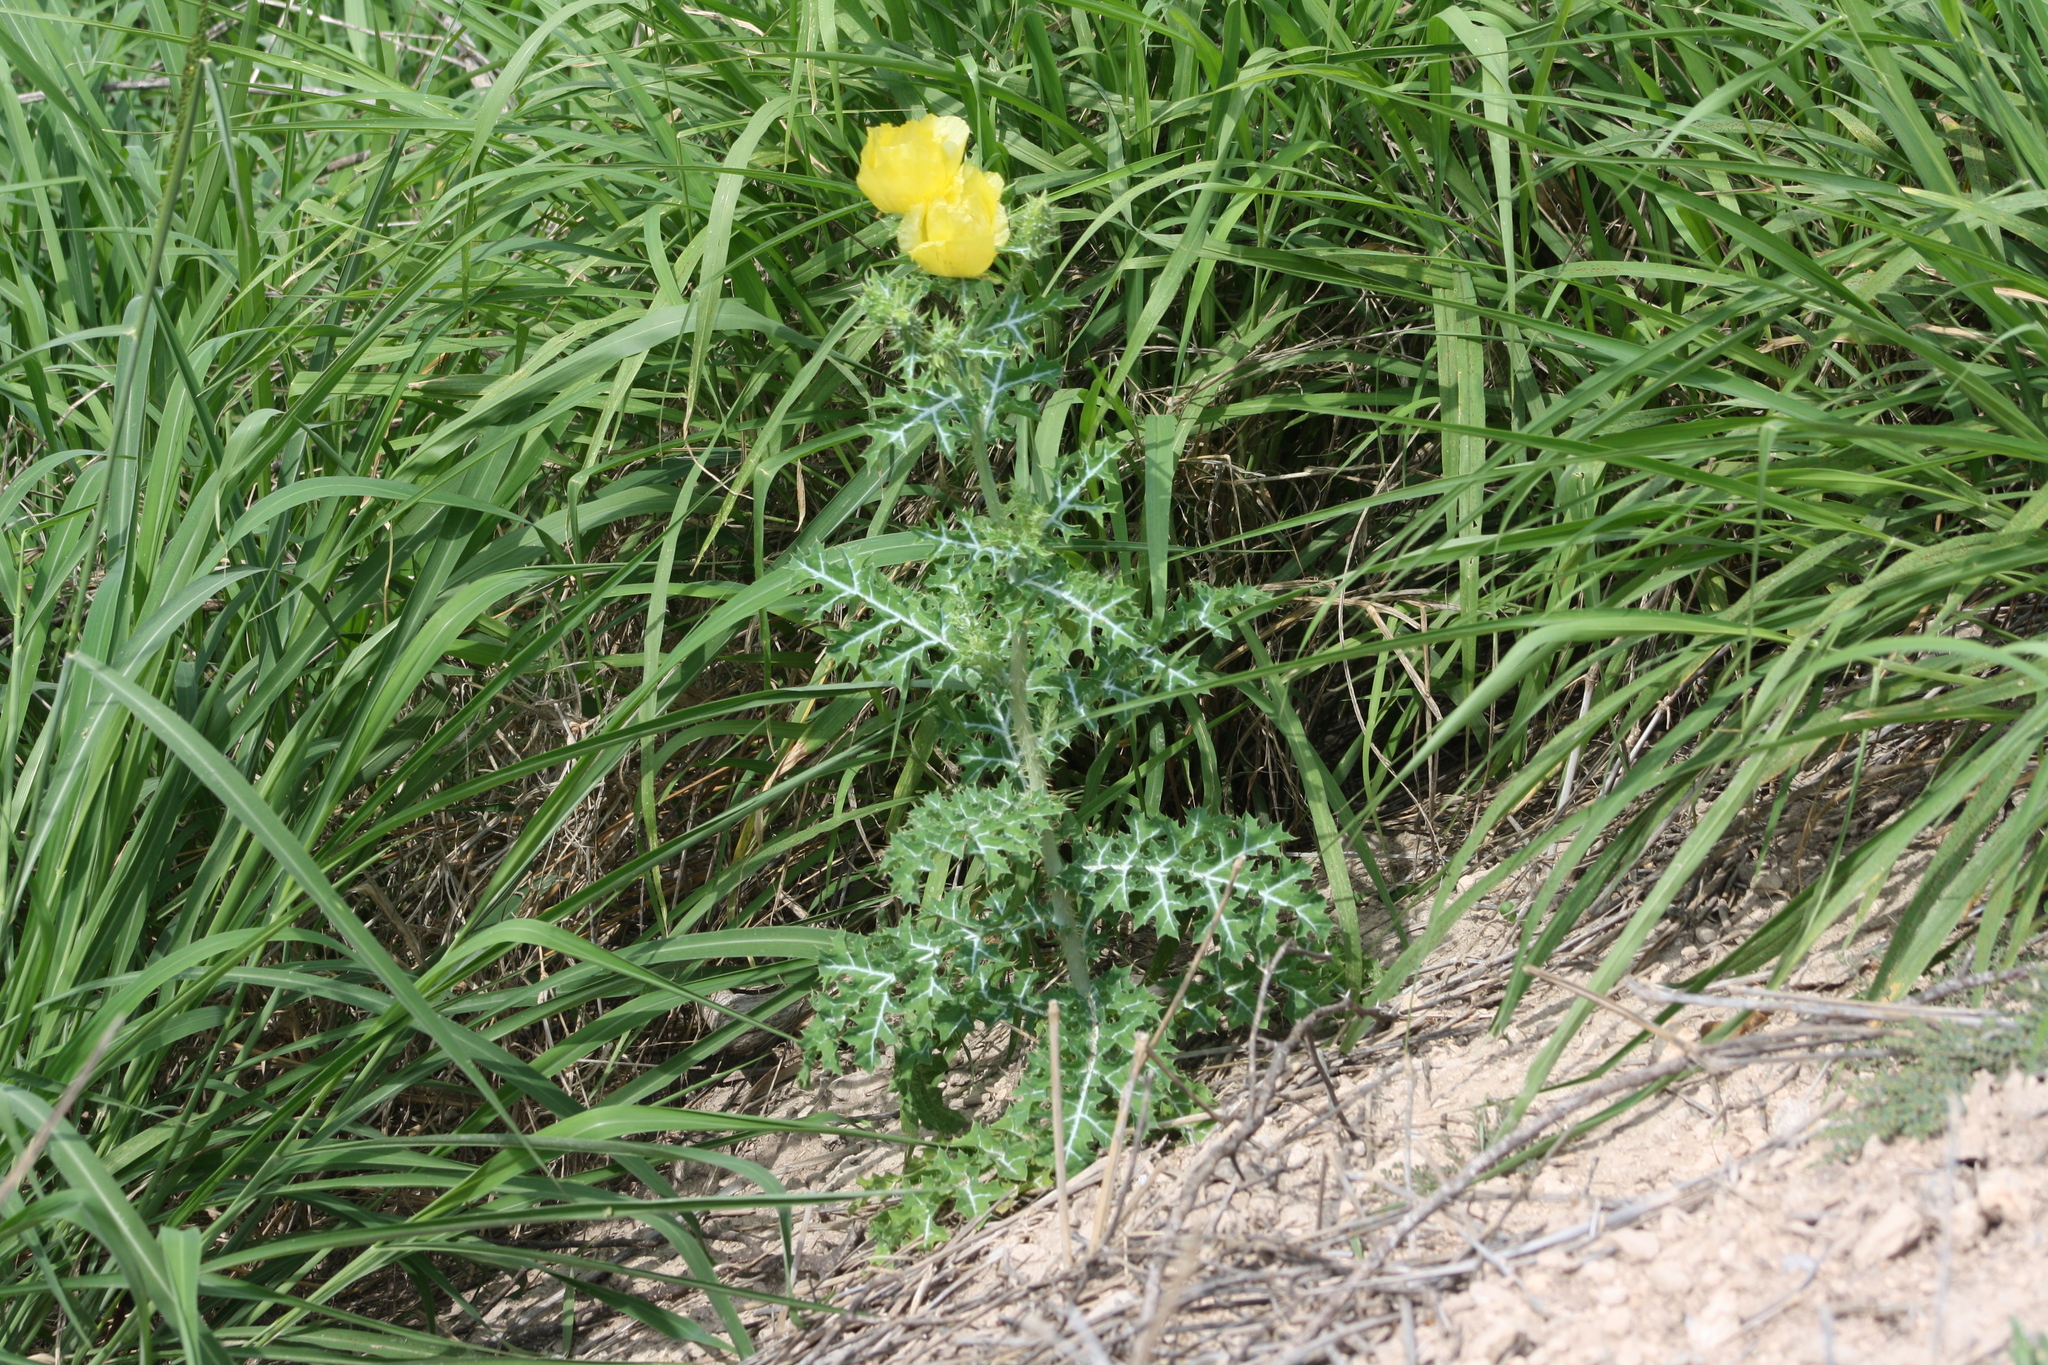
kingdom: Plantae
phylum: Tracheophyta
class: Magnoliopsida
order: Ranunculales
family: Papaveraceae
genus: Argemone
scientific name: Argemone aenea
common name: Golden prickly-poppy
